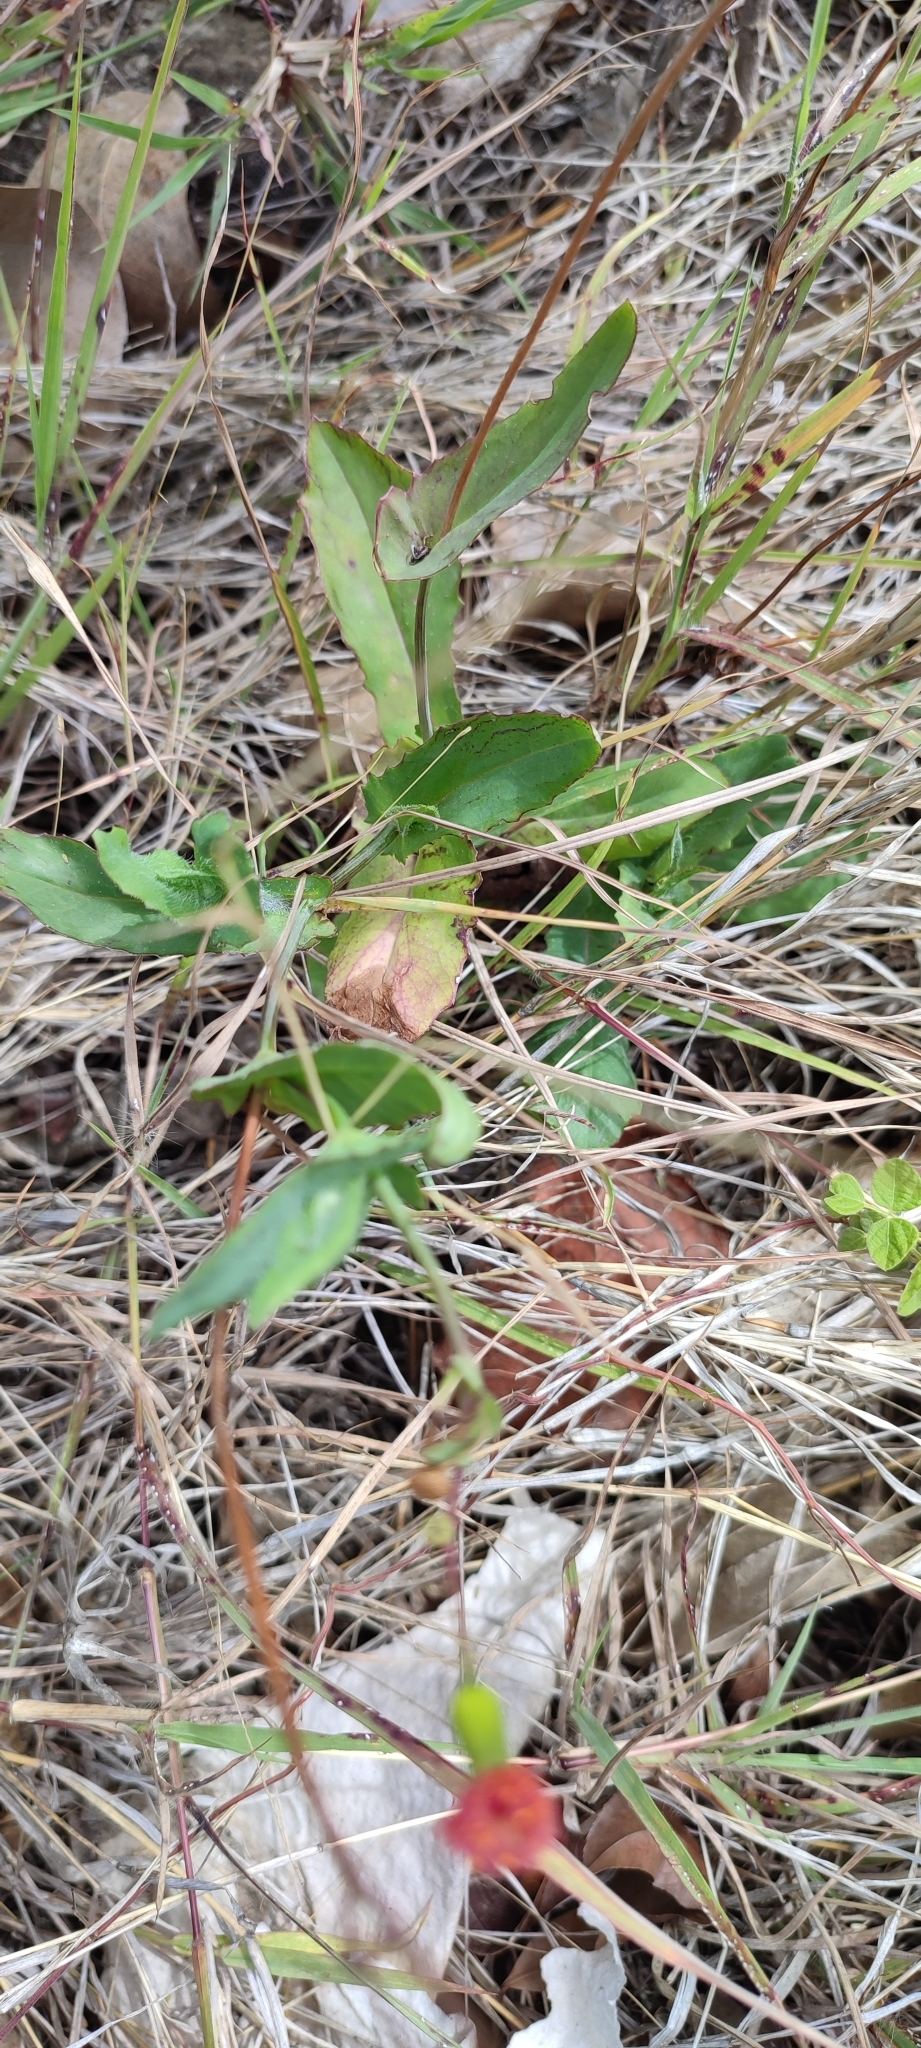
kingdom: Plantae
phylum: Tracheophyta
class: Magnoliopsida
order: Asterales
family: Asteraceae
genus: Emilia
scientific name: Emilia fosbergii
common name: Florida tasselflower
